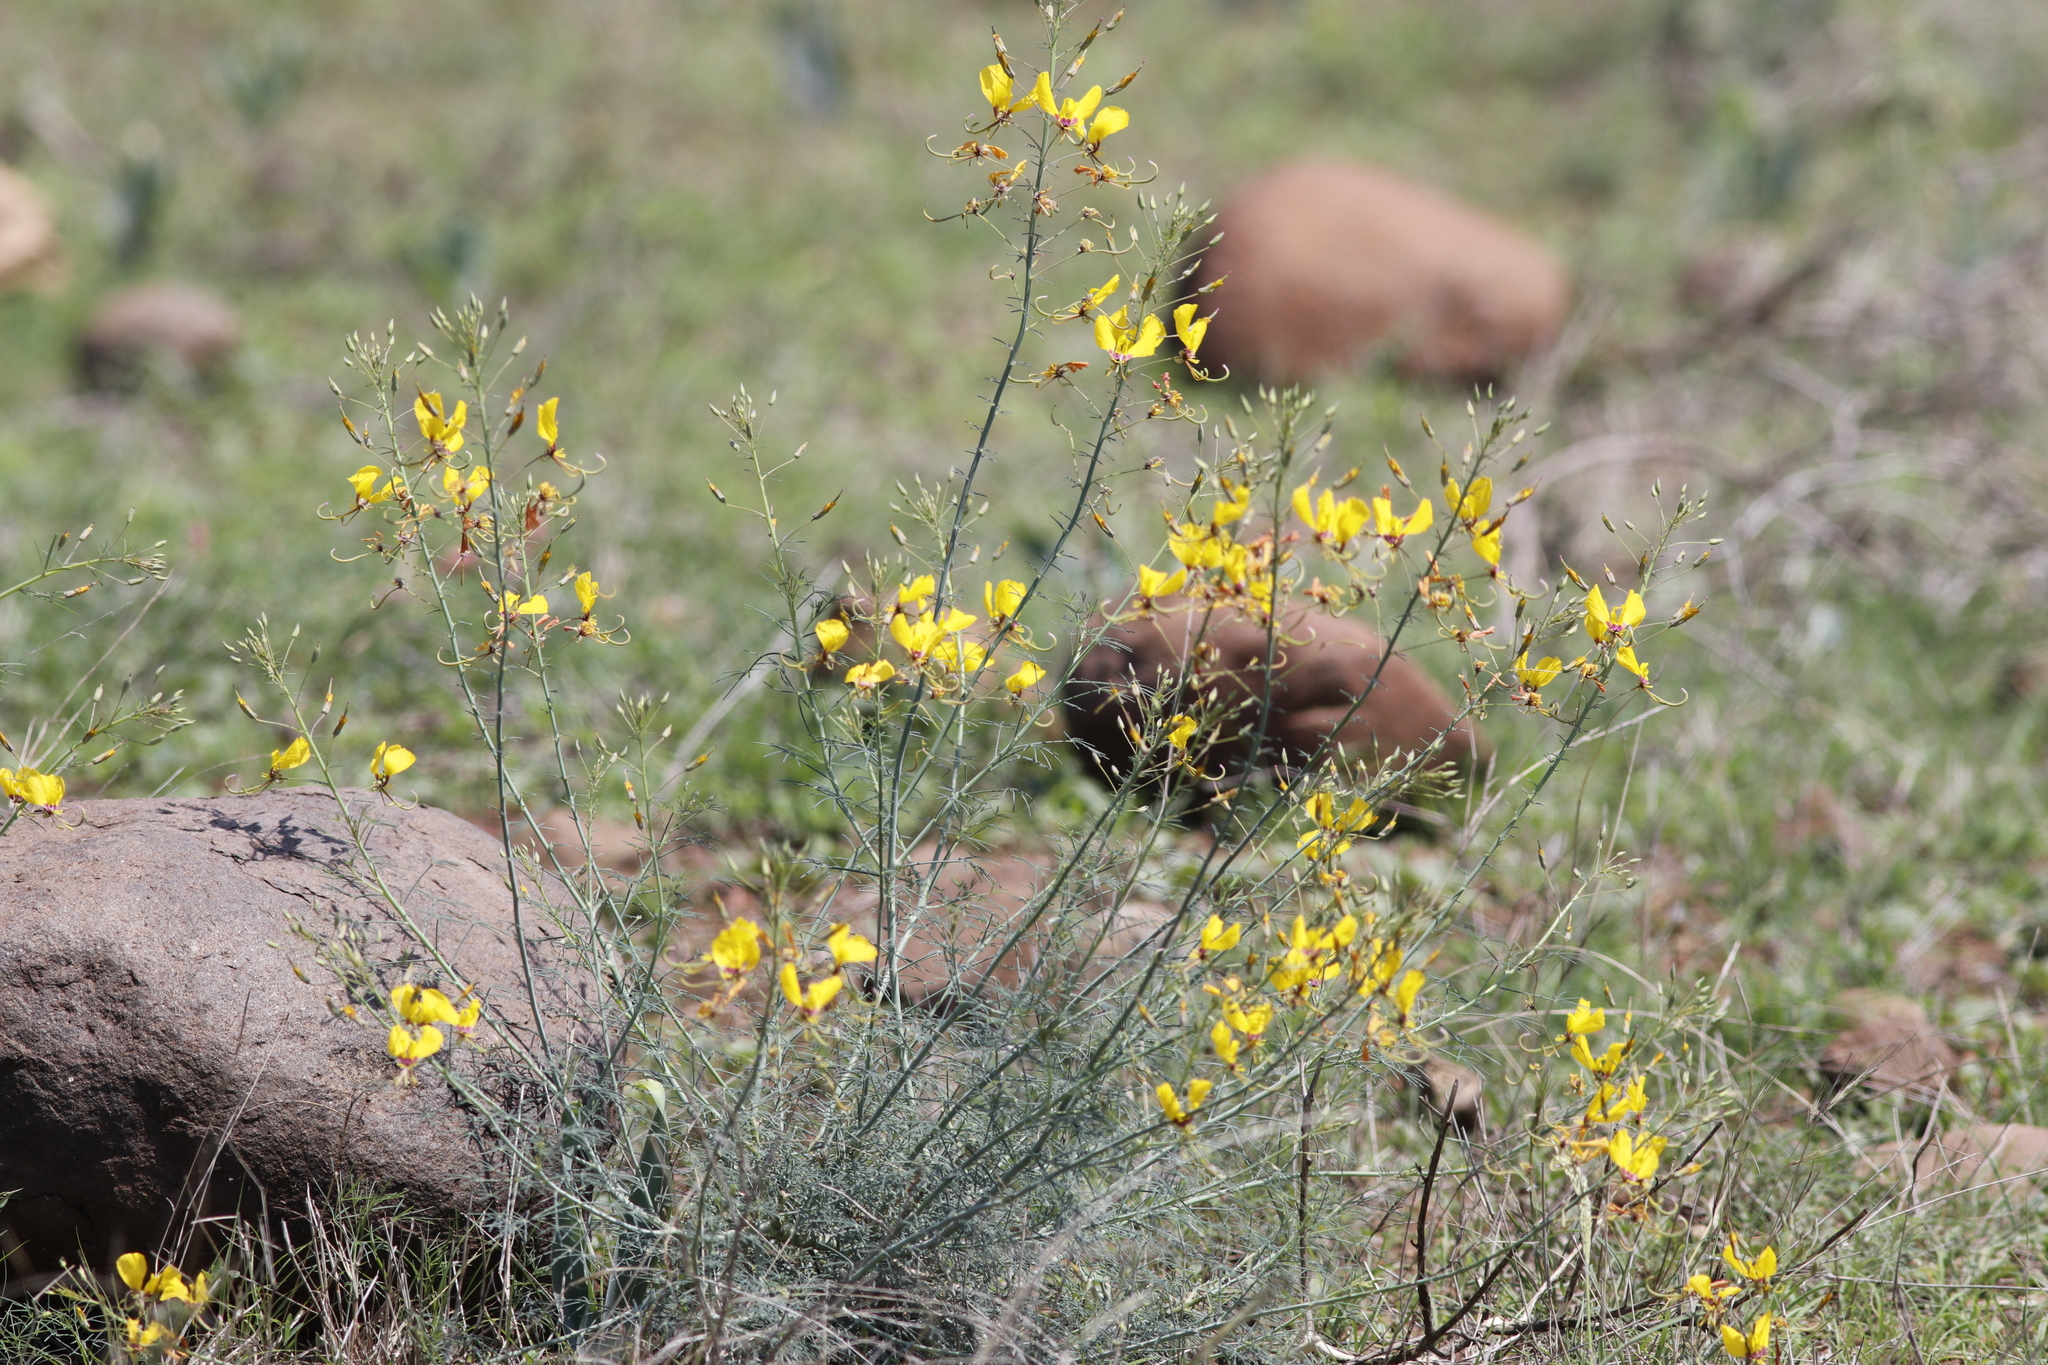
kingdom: Plantae
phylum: Tracheophyta
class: Magnoliopsida
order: Brassicales
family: Cleomaceae
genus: Coalisina
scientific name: Coalisina
